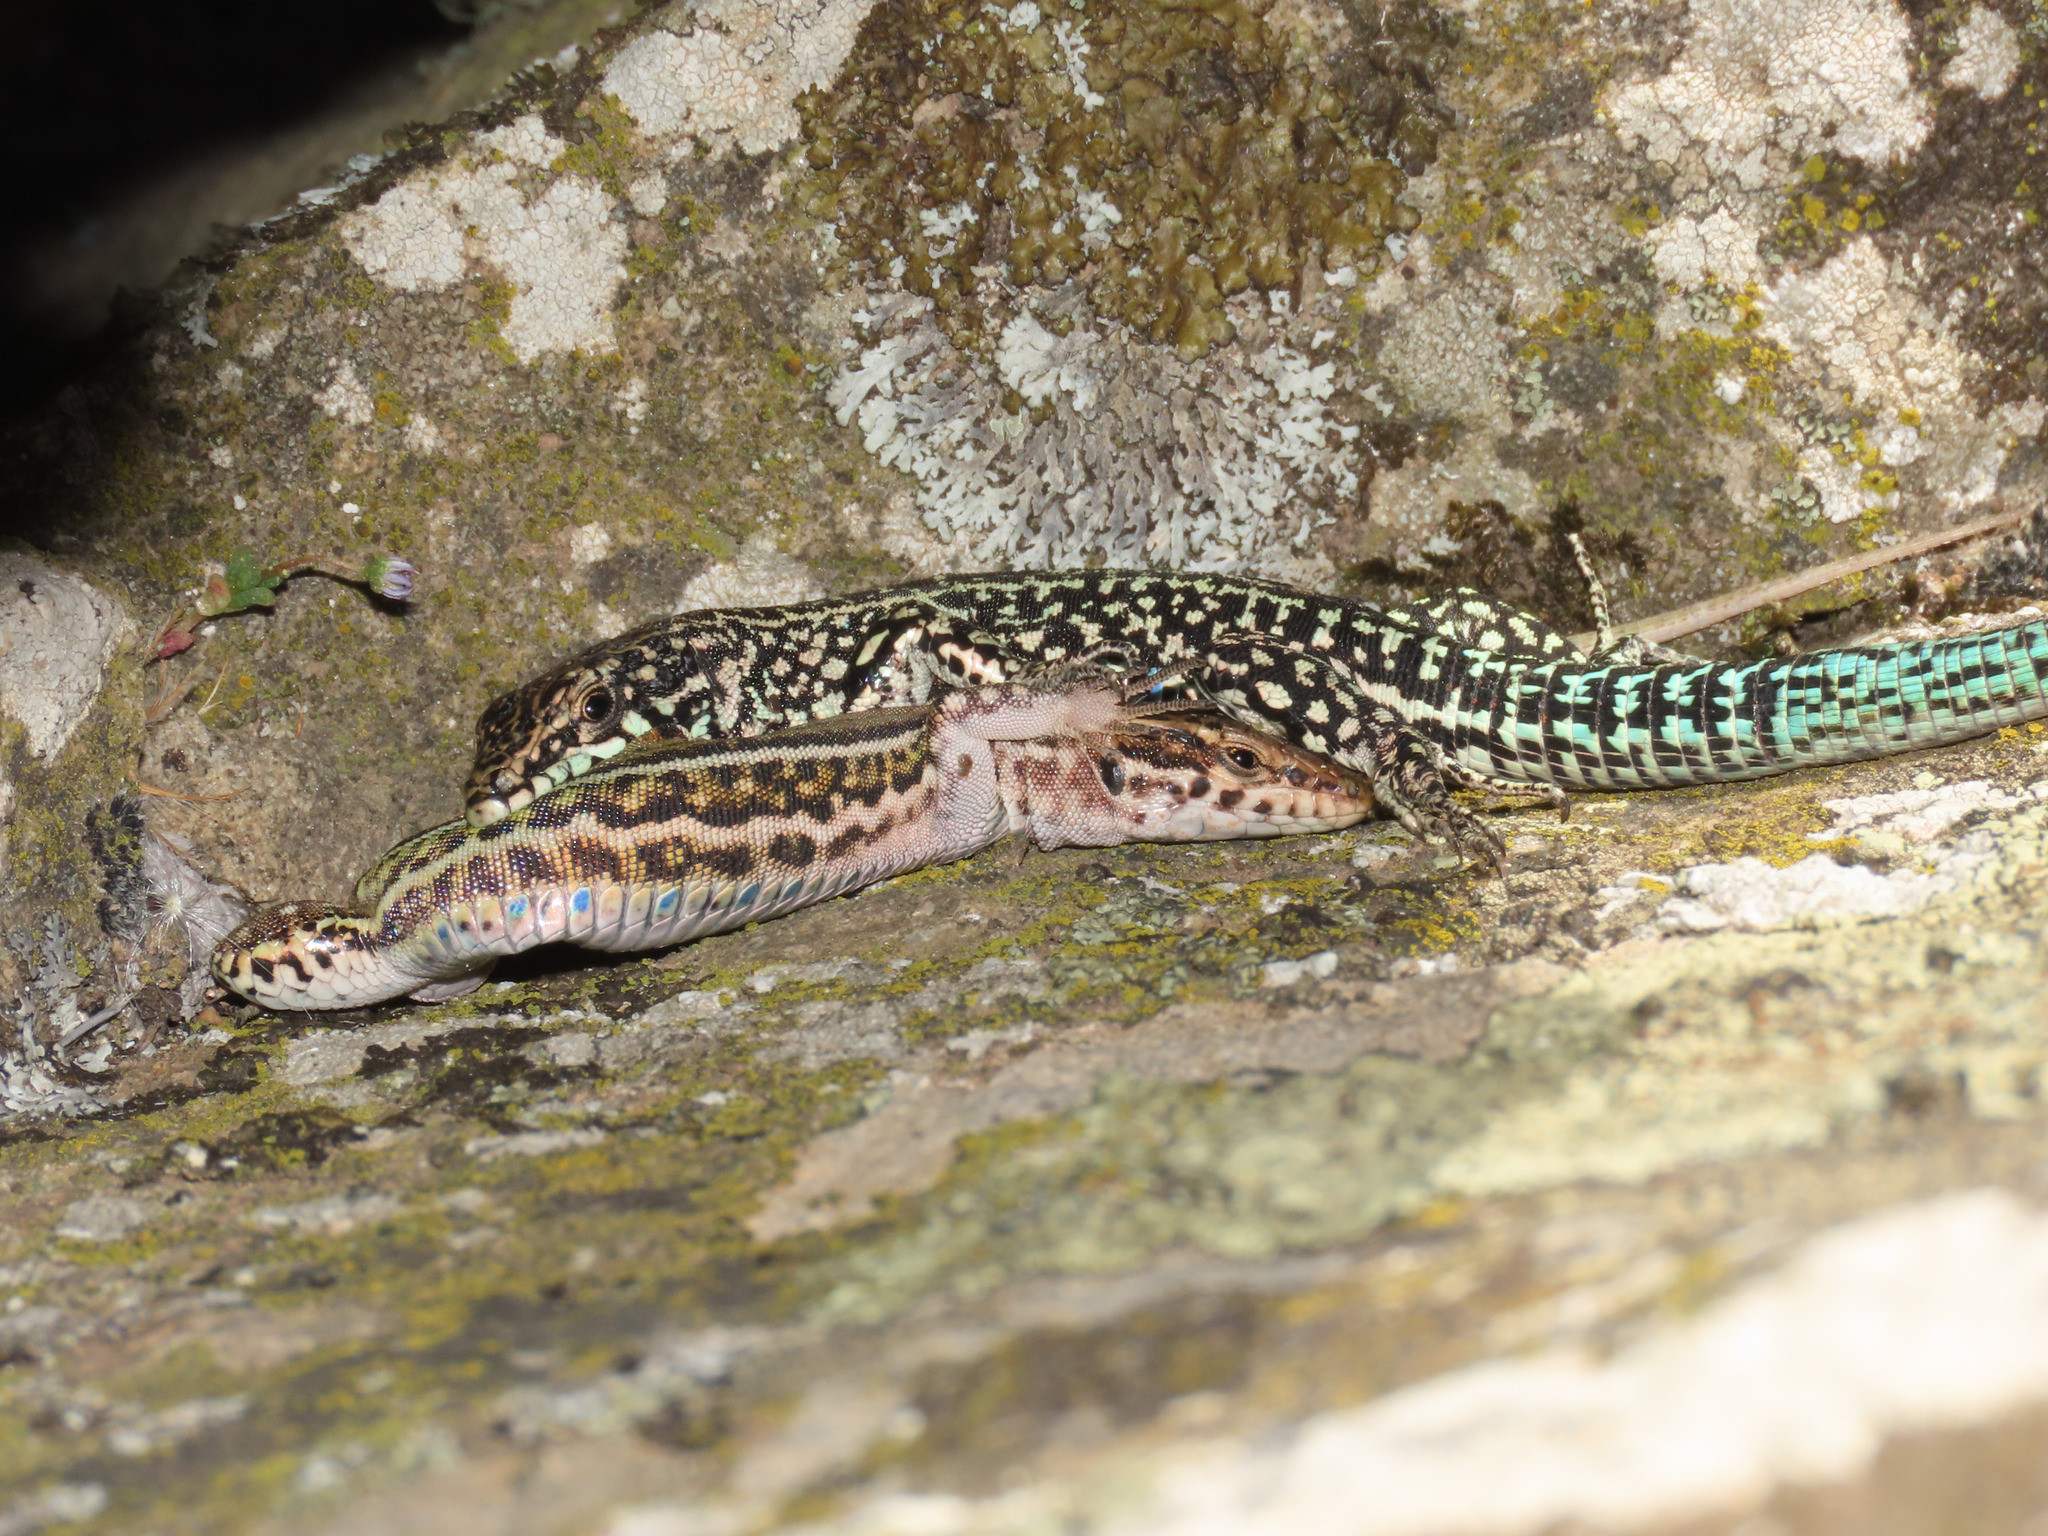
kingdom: Animalia
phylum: Chordata
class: Squamata
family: Lacertidae
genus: Podarcis
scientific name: Podarcis tiliguerta
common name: Tyrrhenian wall lizard
